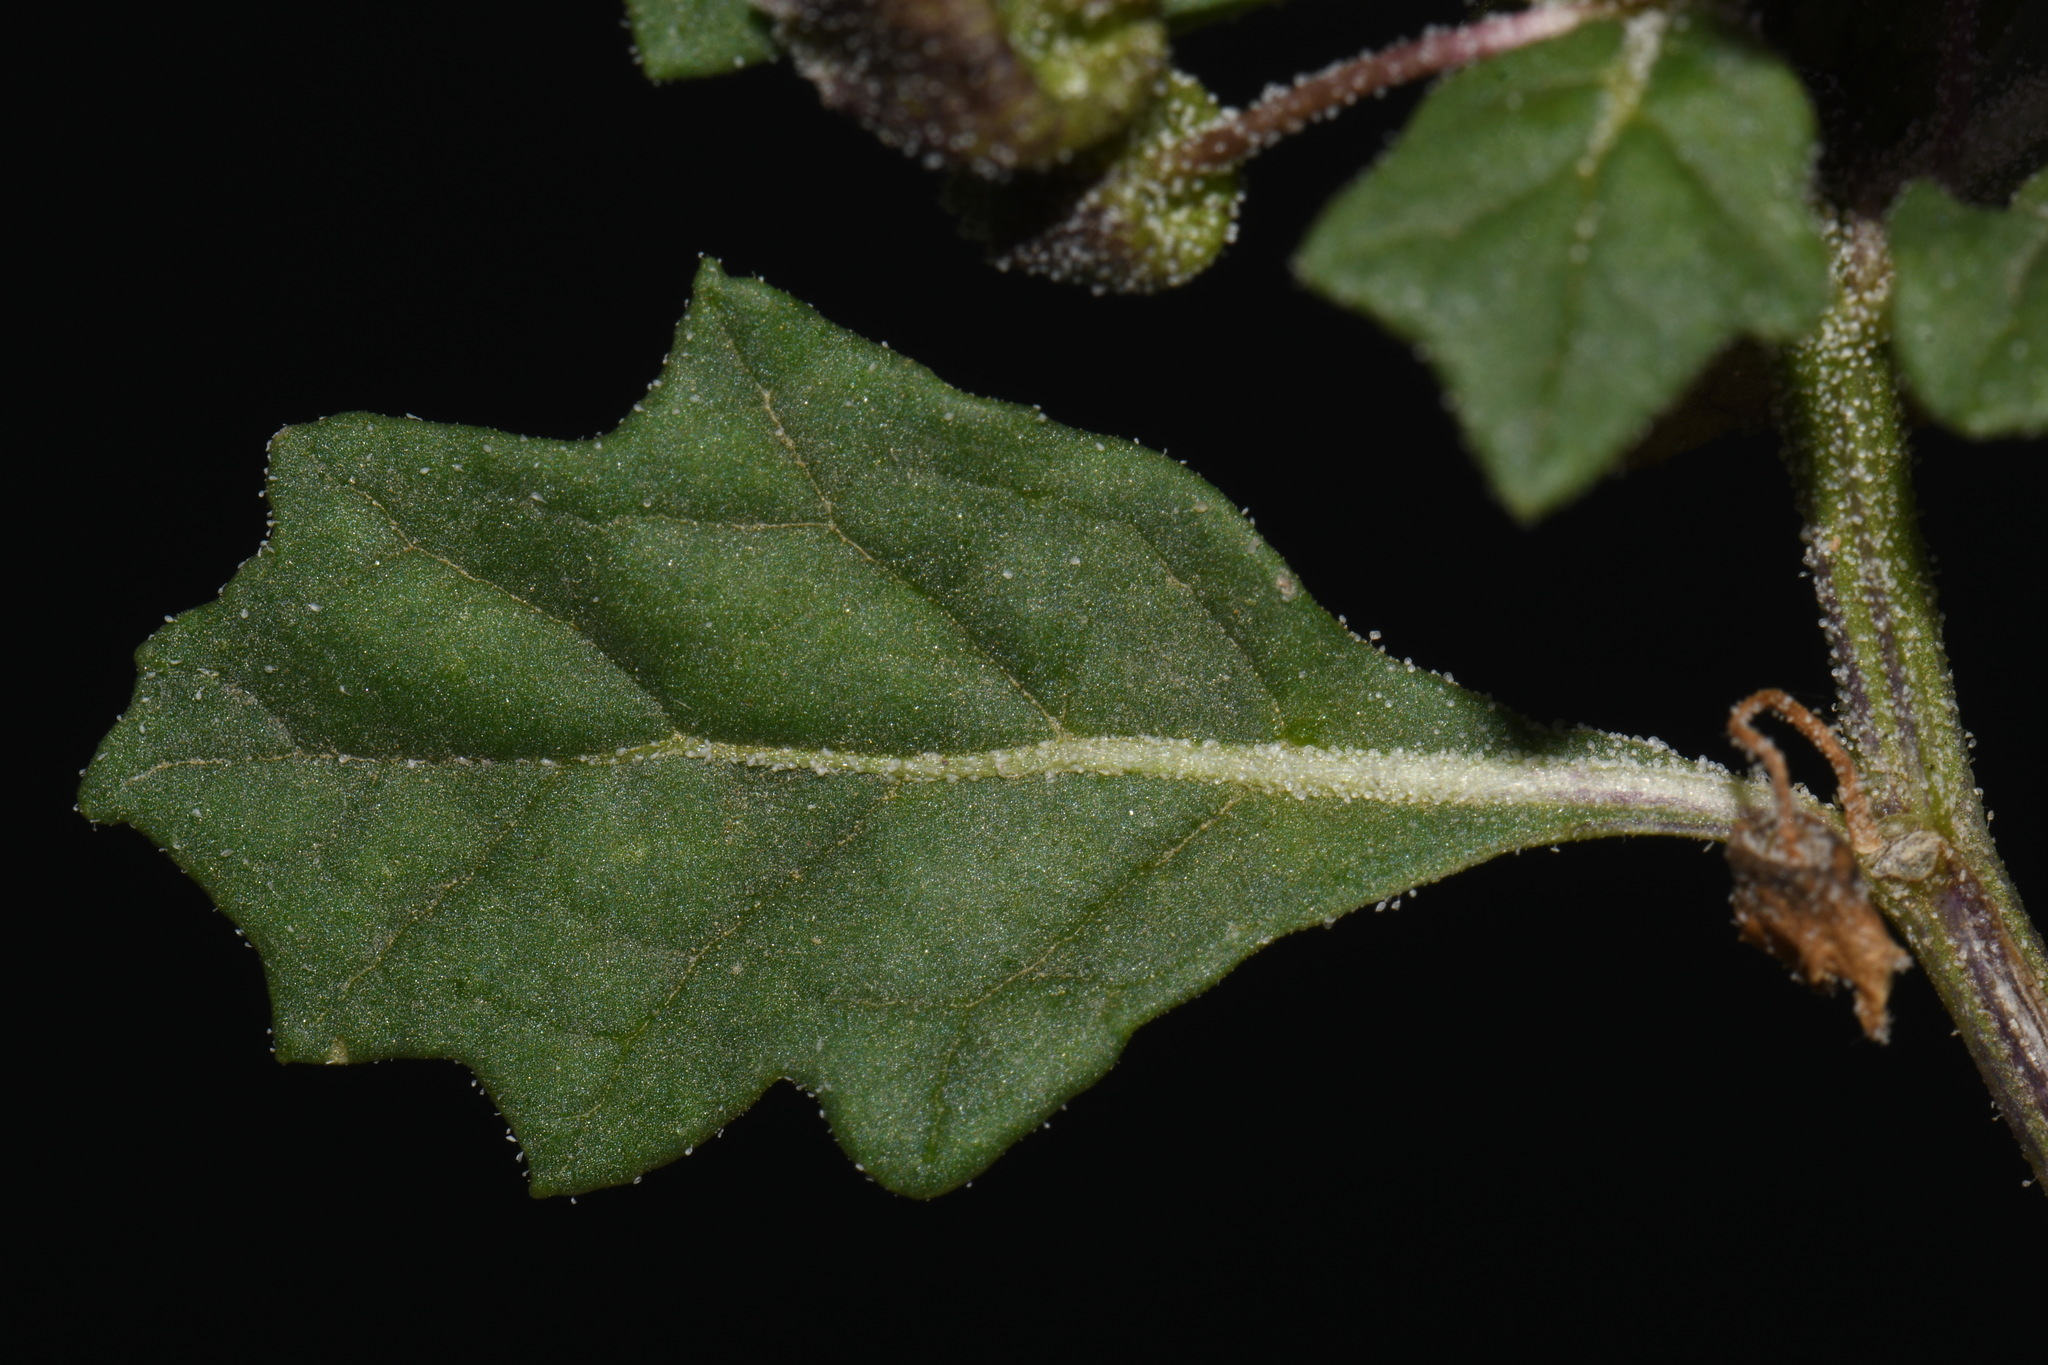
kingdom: Plantae
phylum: Tracheophyta
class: Magnoliopsida
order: Solanales
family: Solanaceae
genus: Quincula
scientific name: Quincula lobata
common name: Purple-ground-cherry
